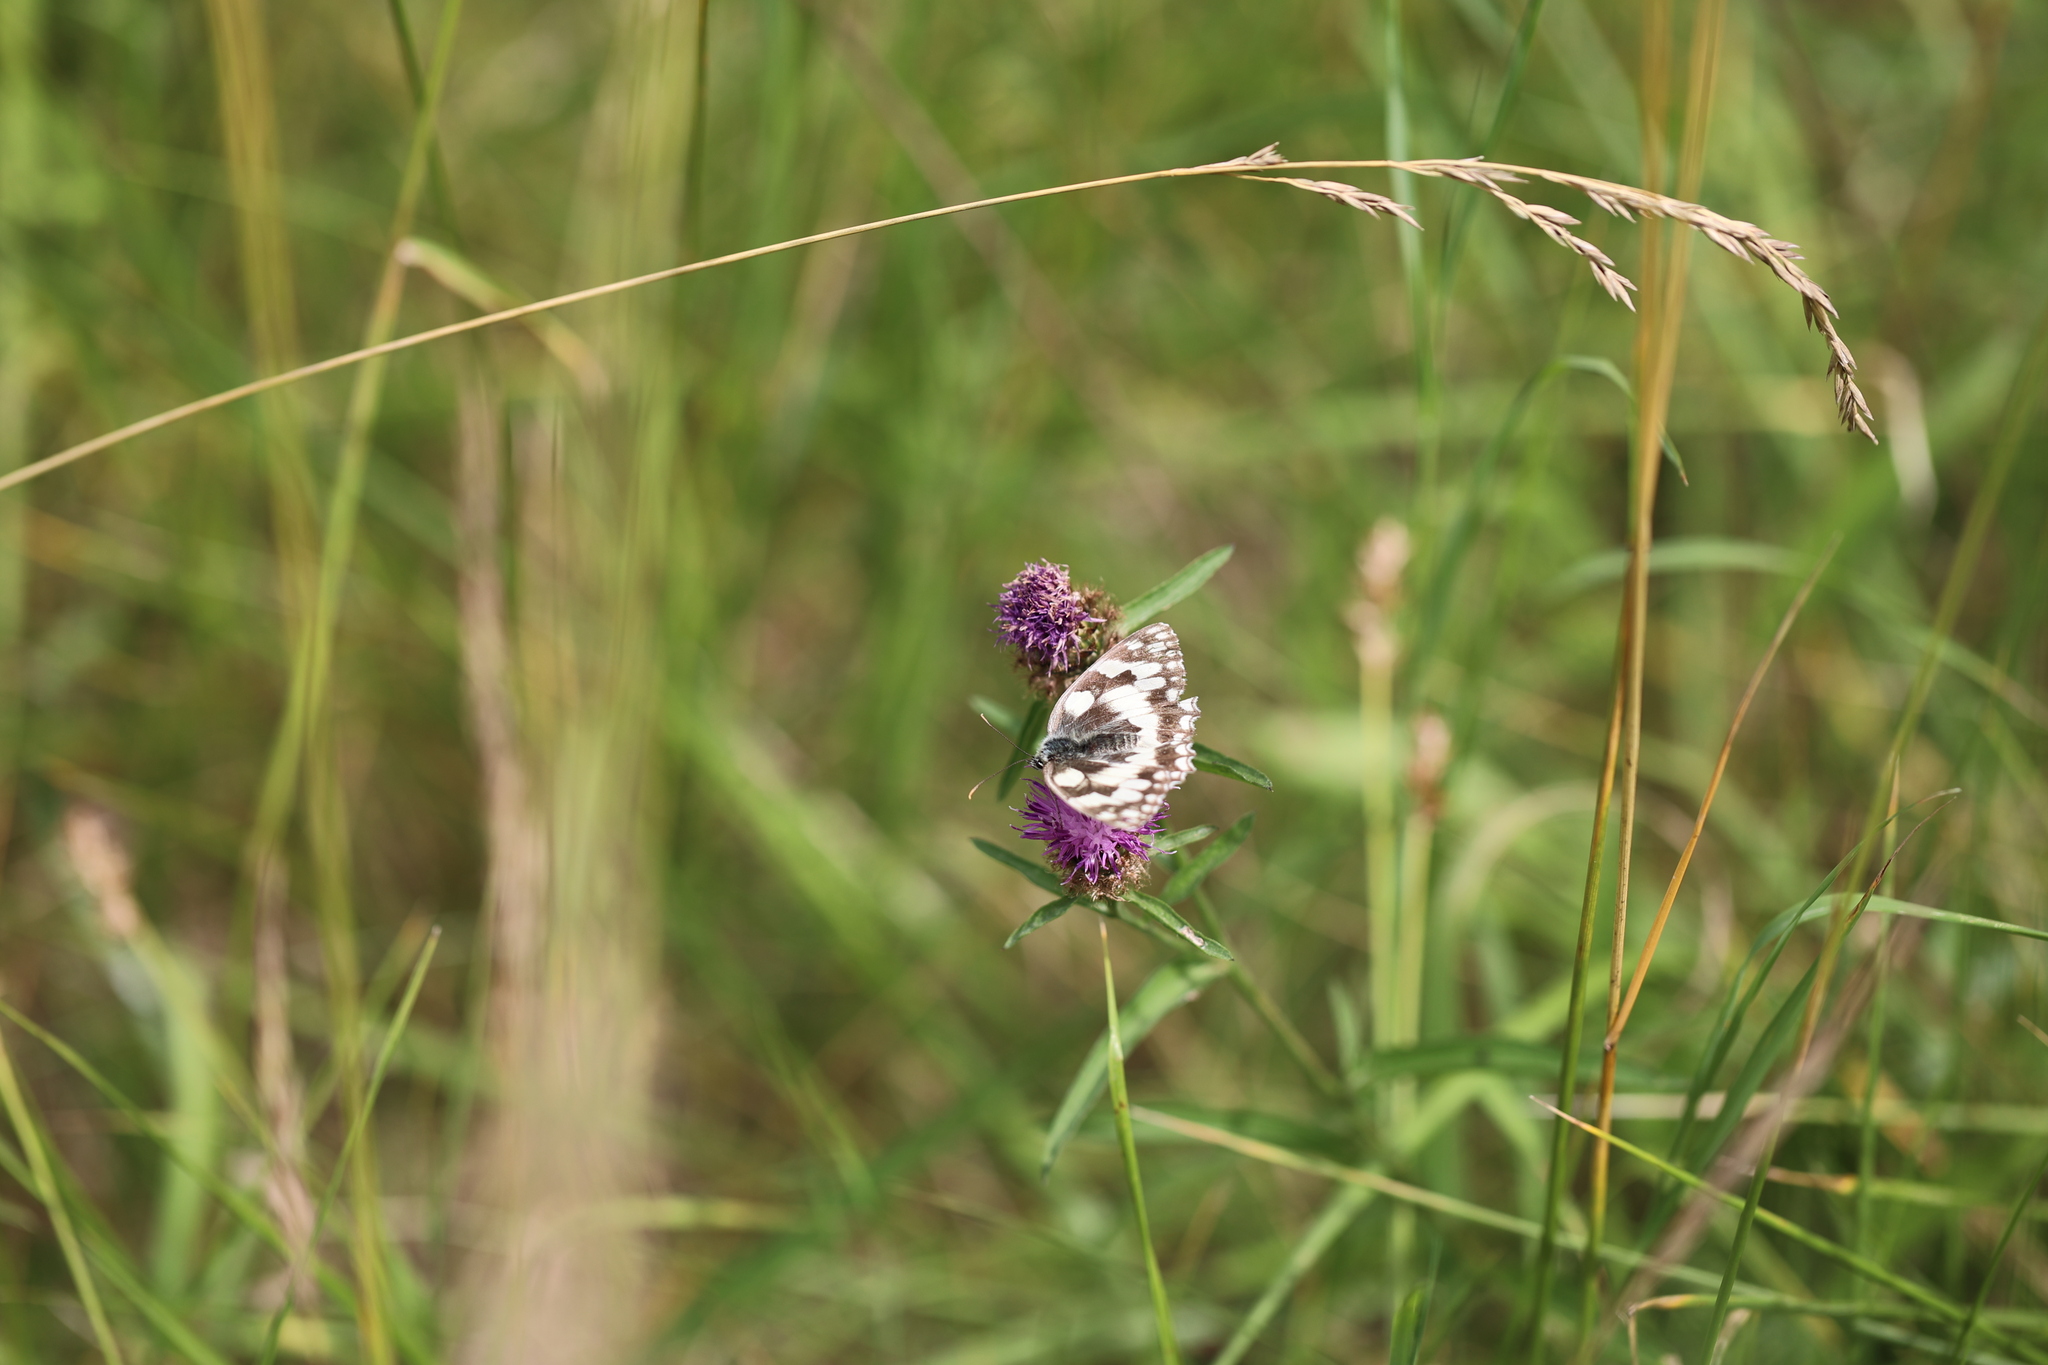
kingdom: Animalia
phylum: Arthropoda
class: Insecta
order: Lepidoptera
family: Nymphalidae
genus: Melanargia
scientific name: Melanargia galathea
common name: Marbled white
